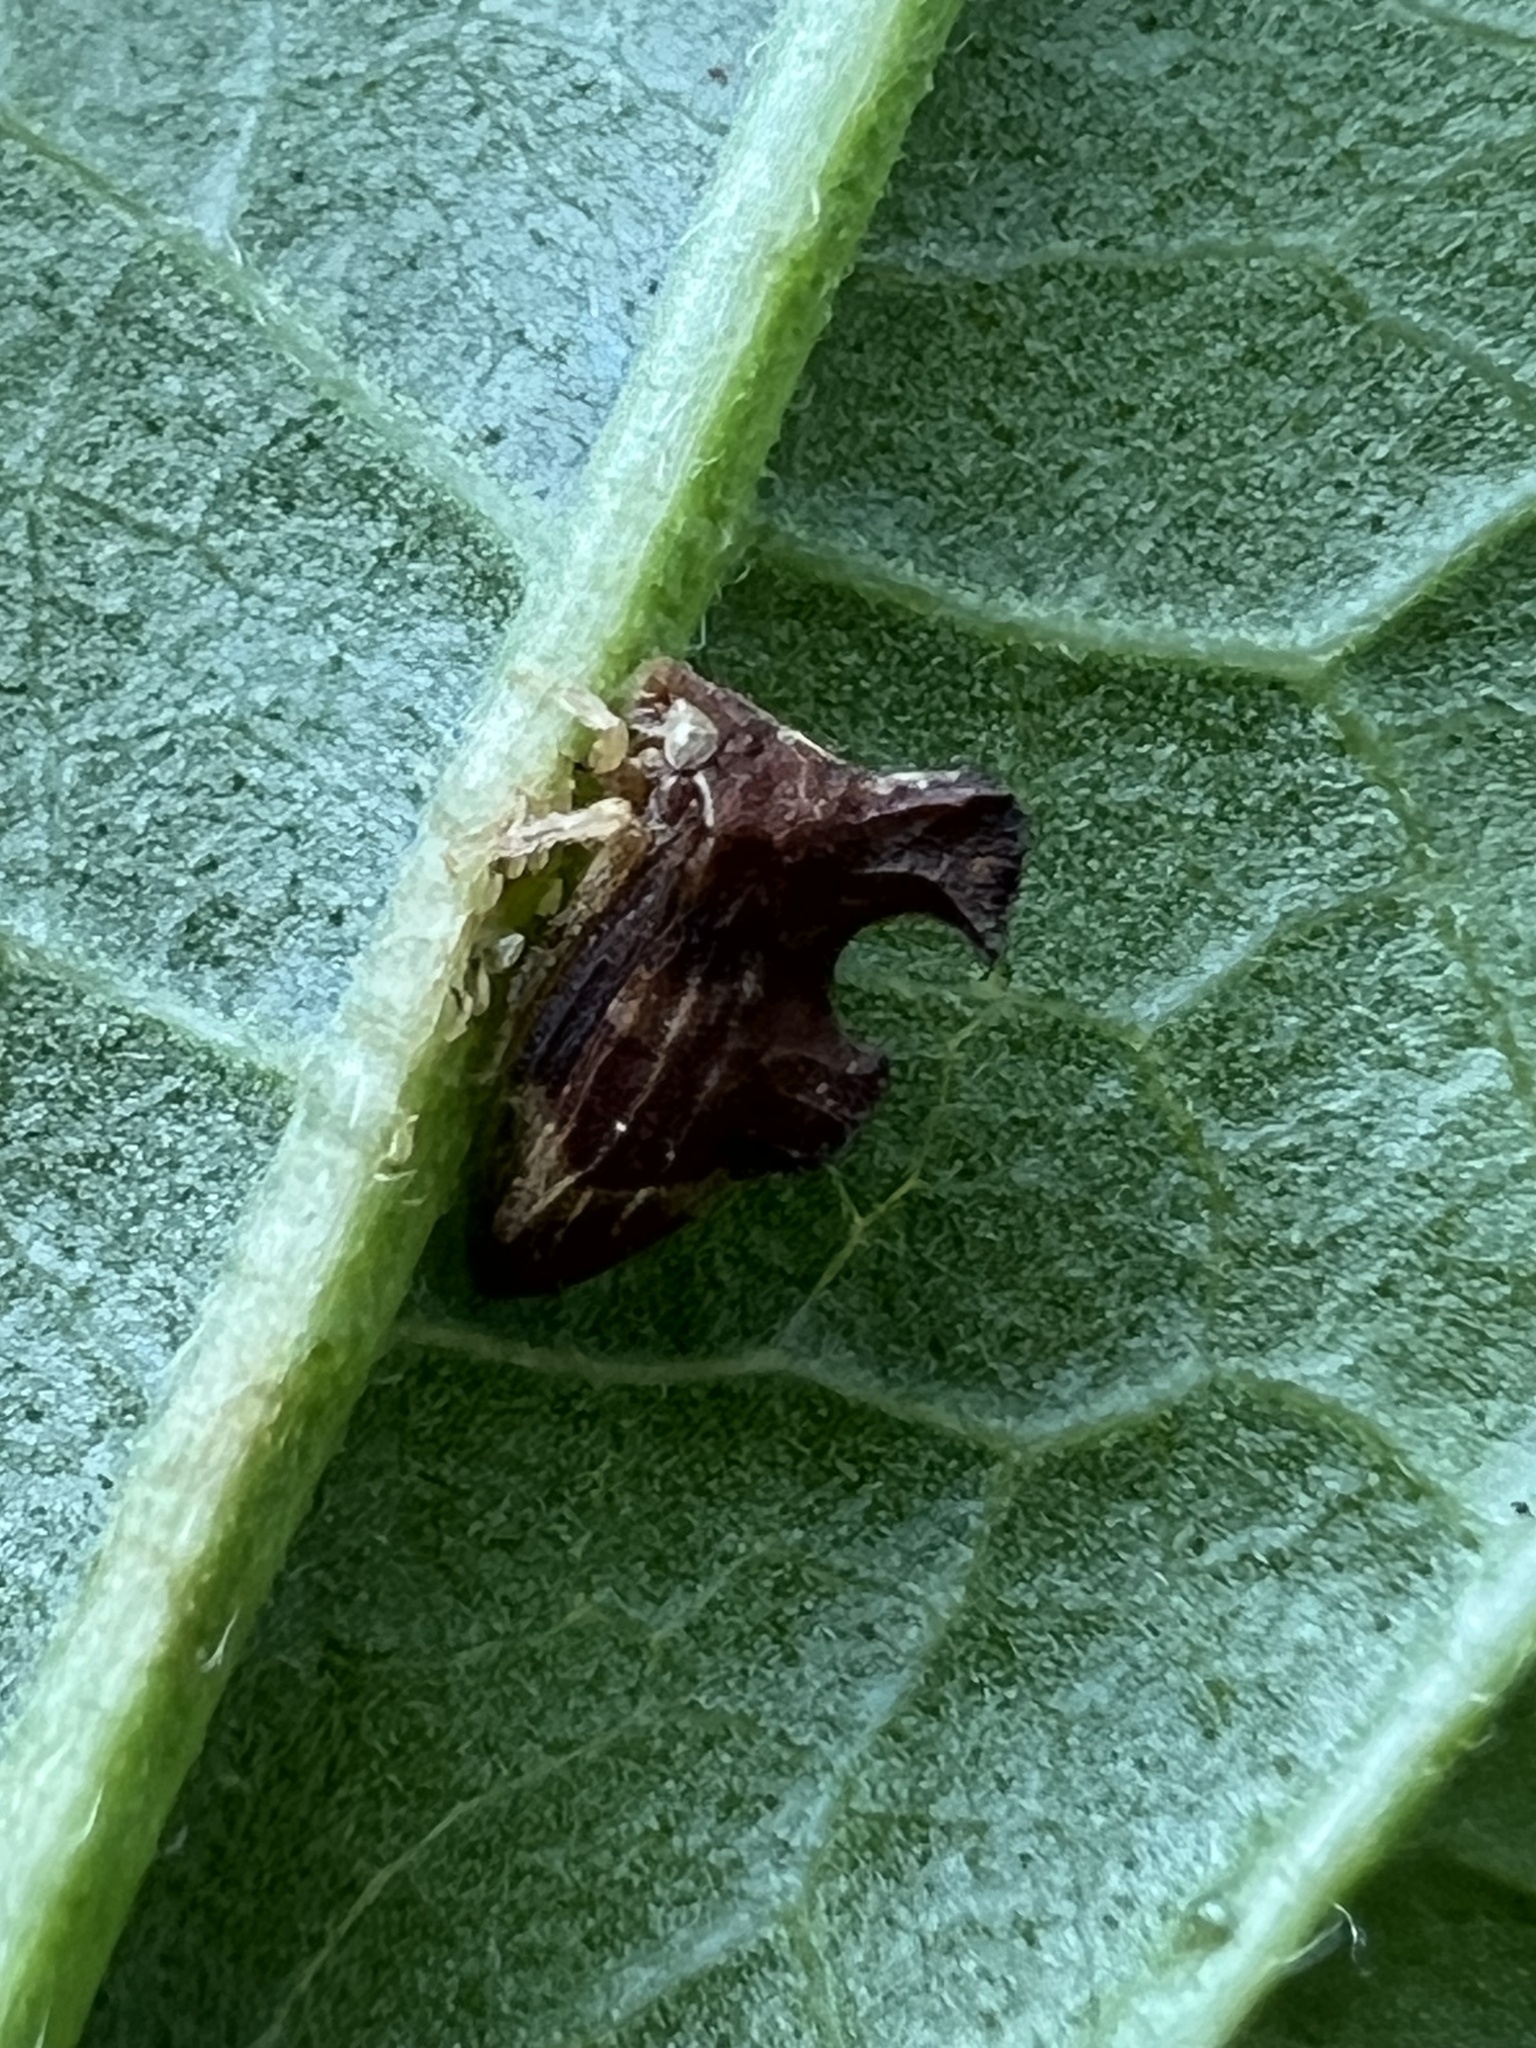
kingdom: Animalia
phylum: Arthropoda
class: Insecta
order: Hemiptera
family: Membracidae
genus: Entylia
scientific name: Entylia carinata
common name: Keeled treehopper
